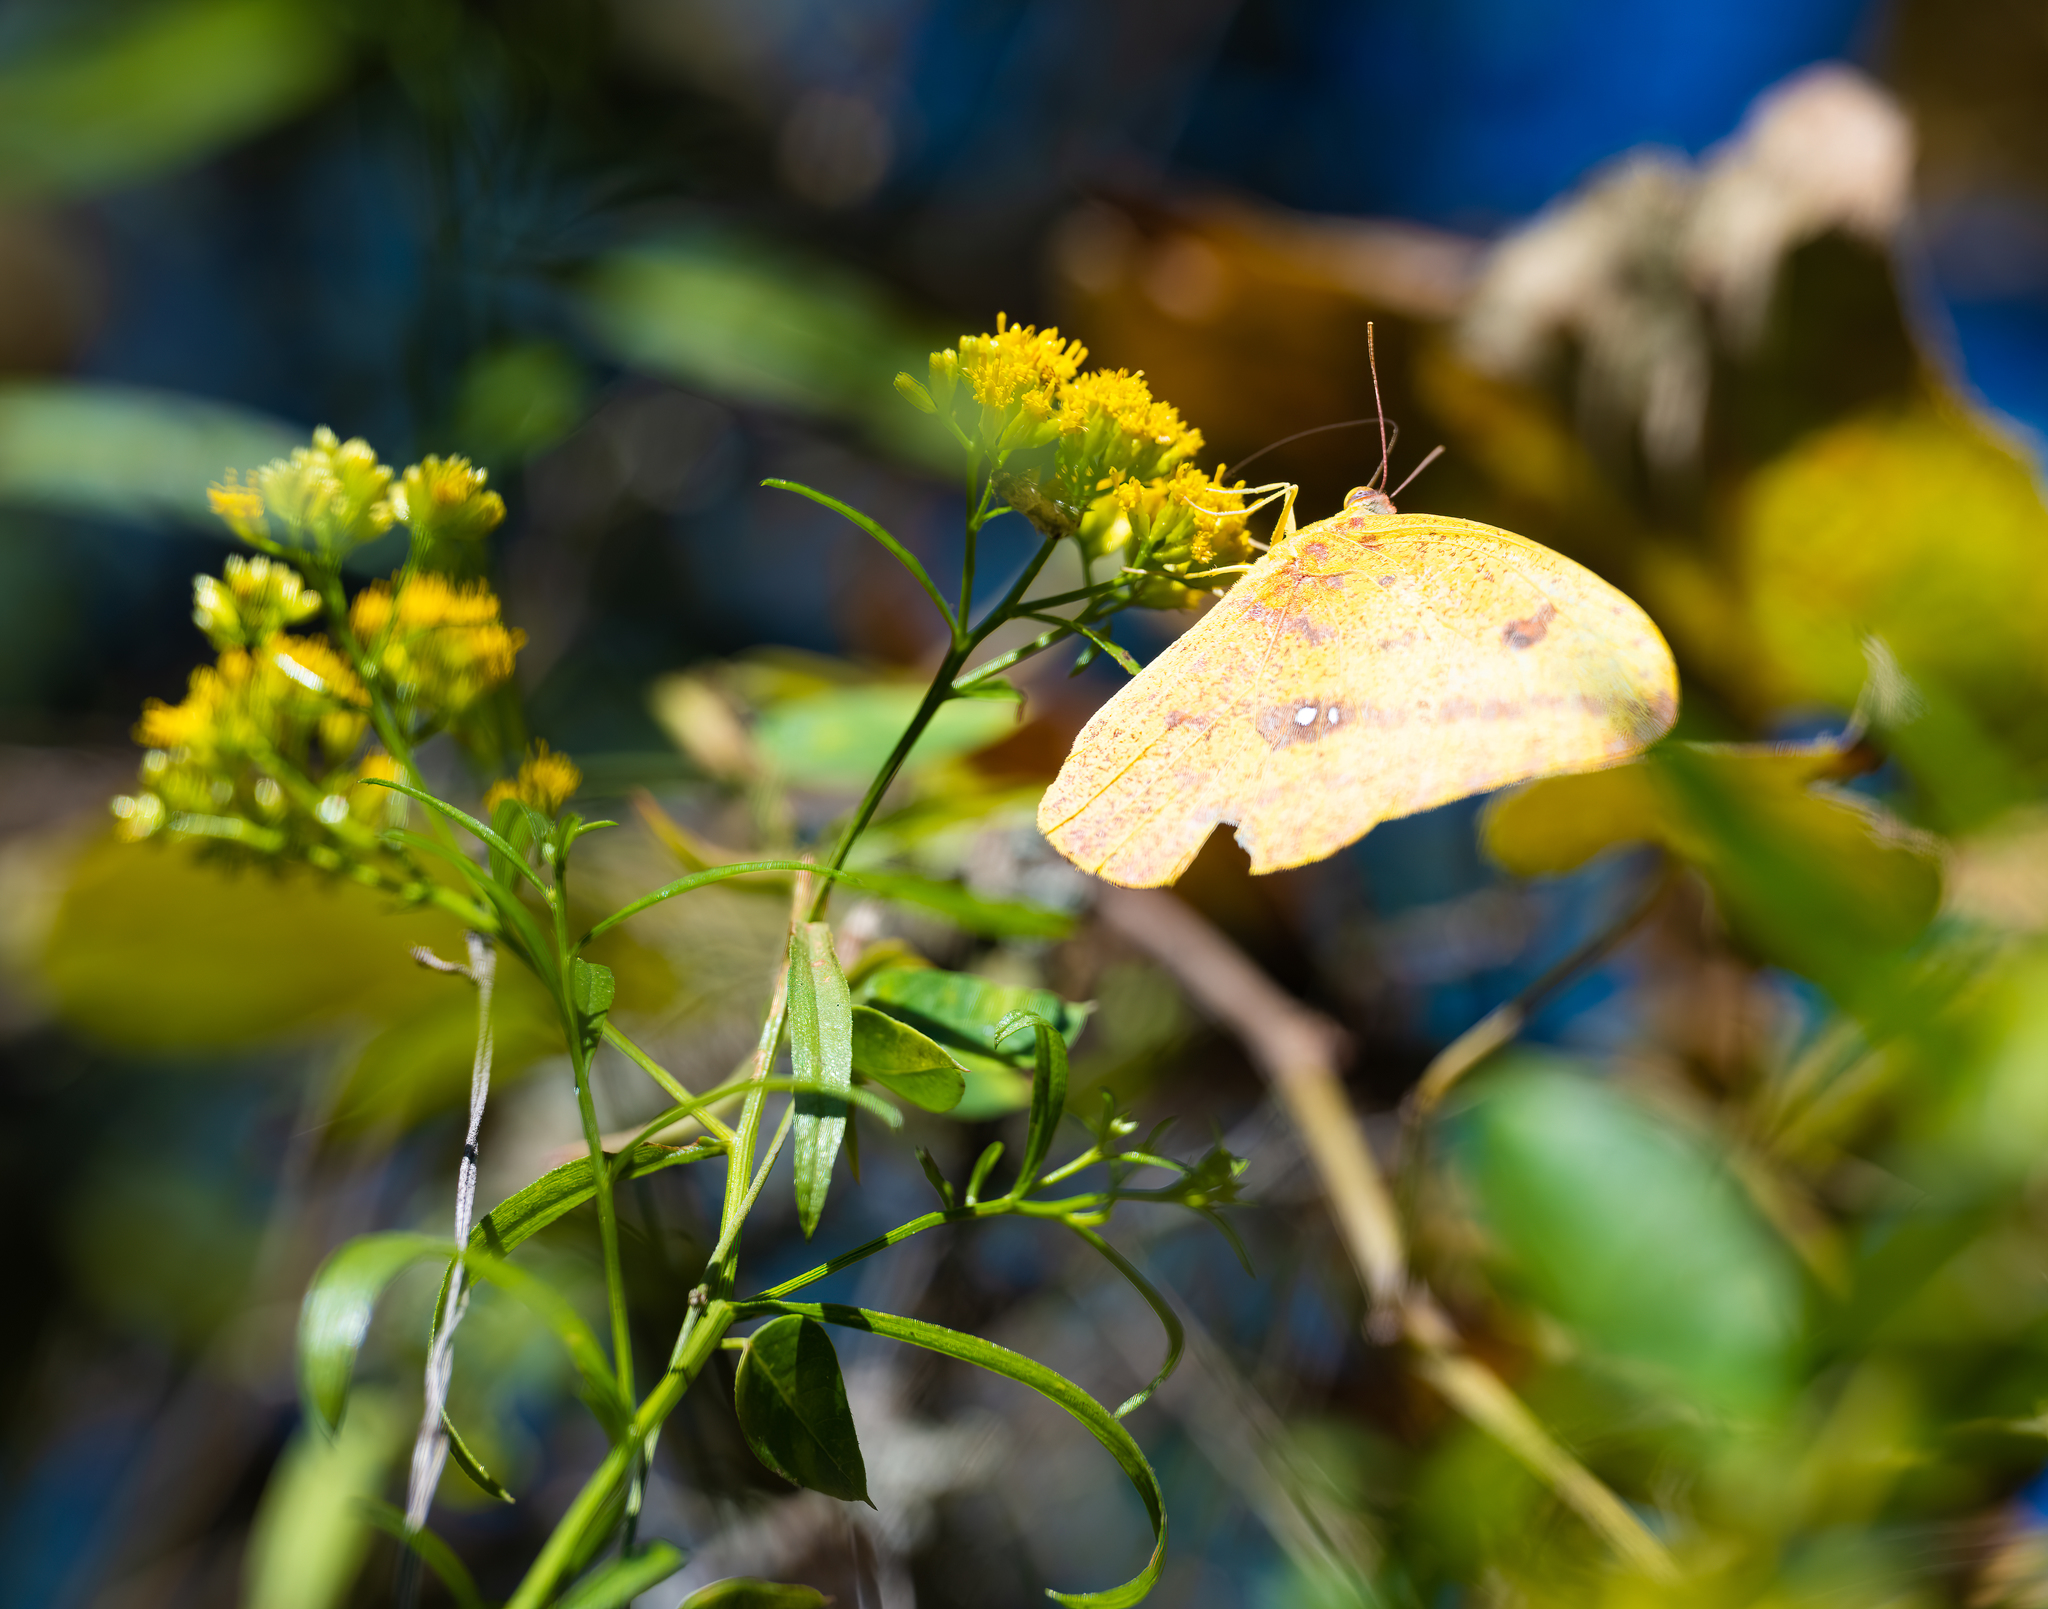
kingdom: Animalia
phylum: Arthropoda
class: Insecta
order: Lepidoptera
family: Pieridae
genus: Phoebis
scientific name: Phoebis agarithe
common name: Large orange sulphur
